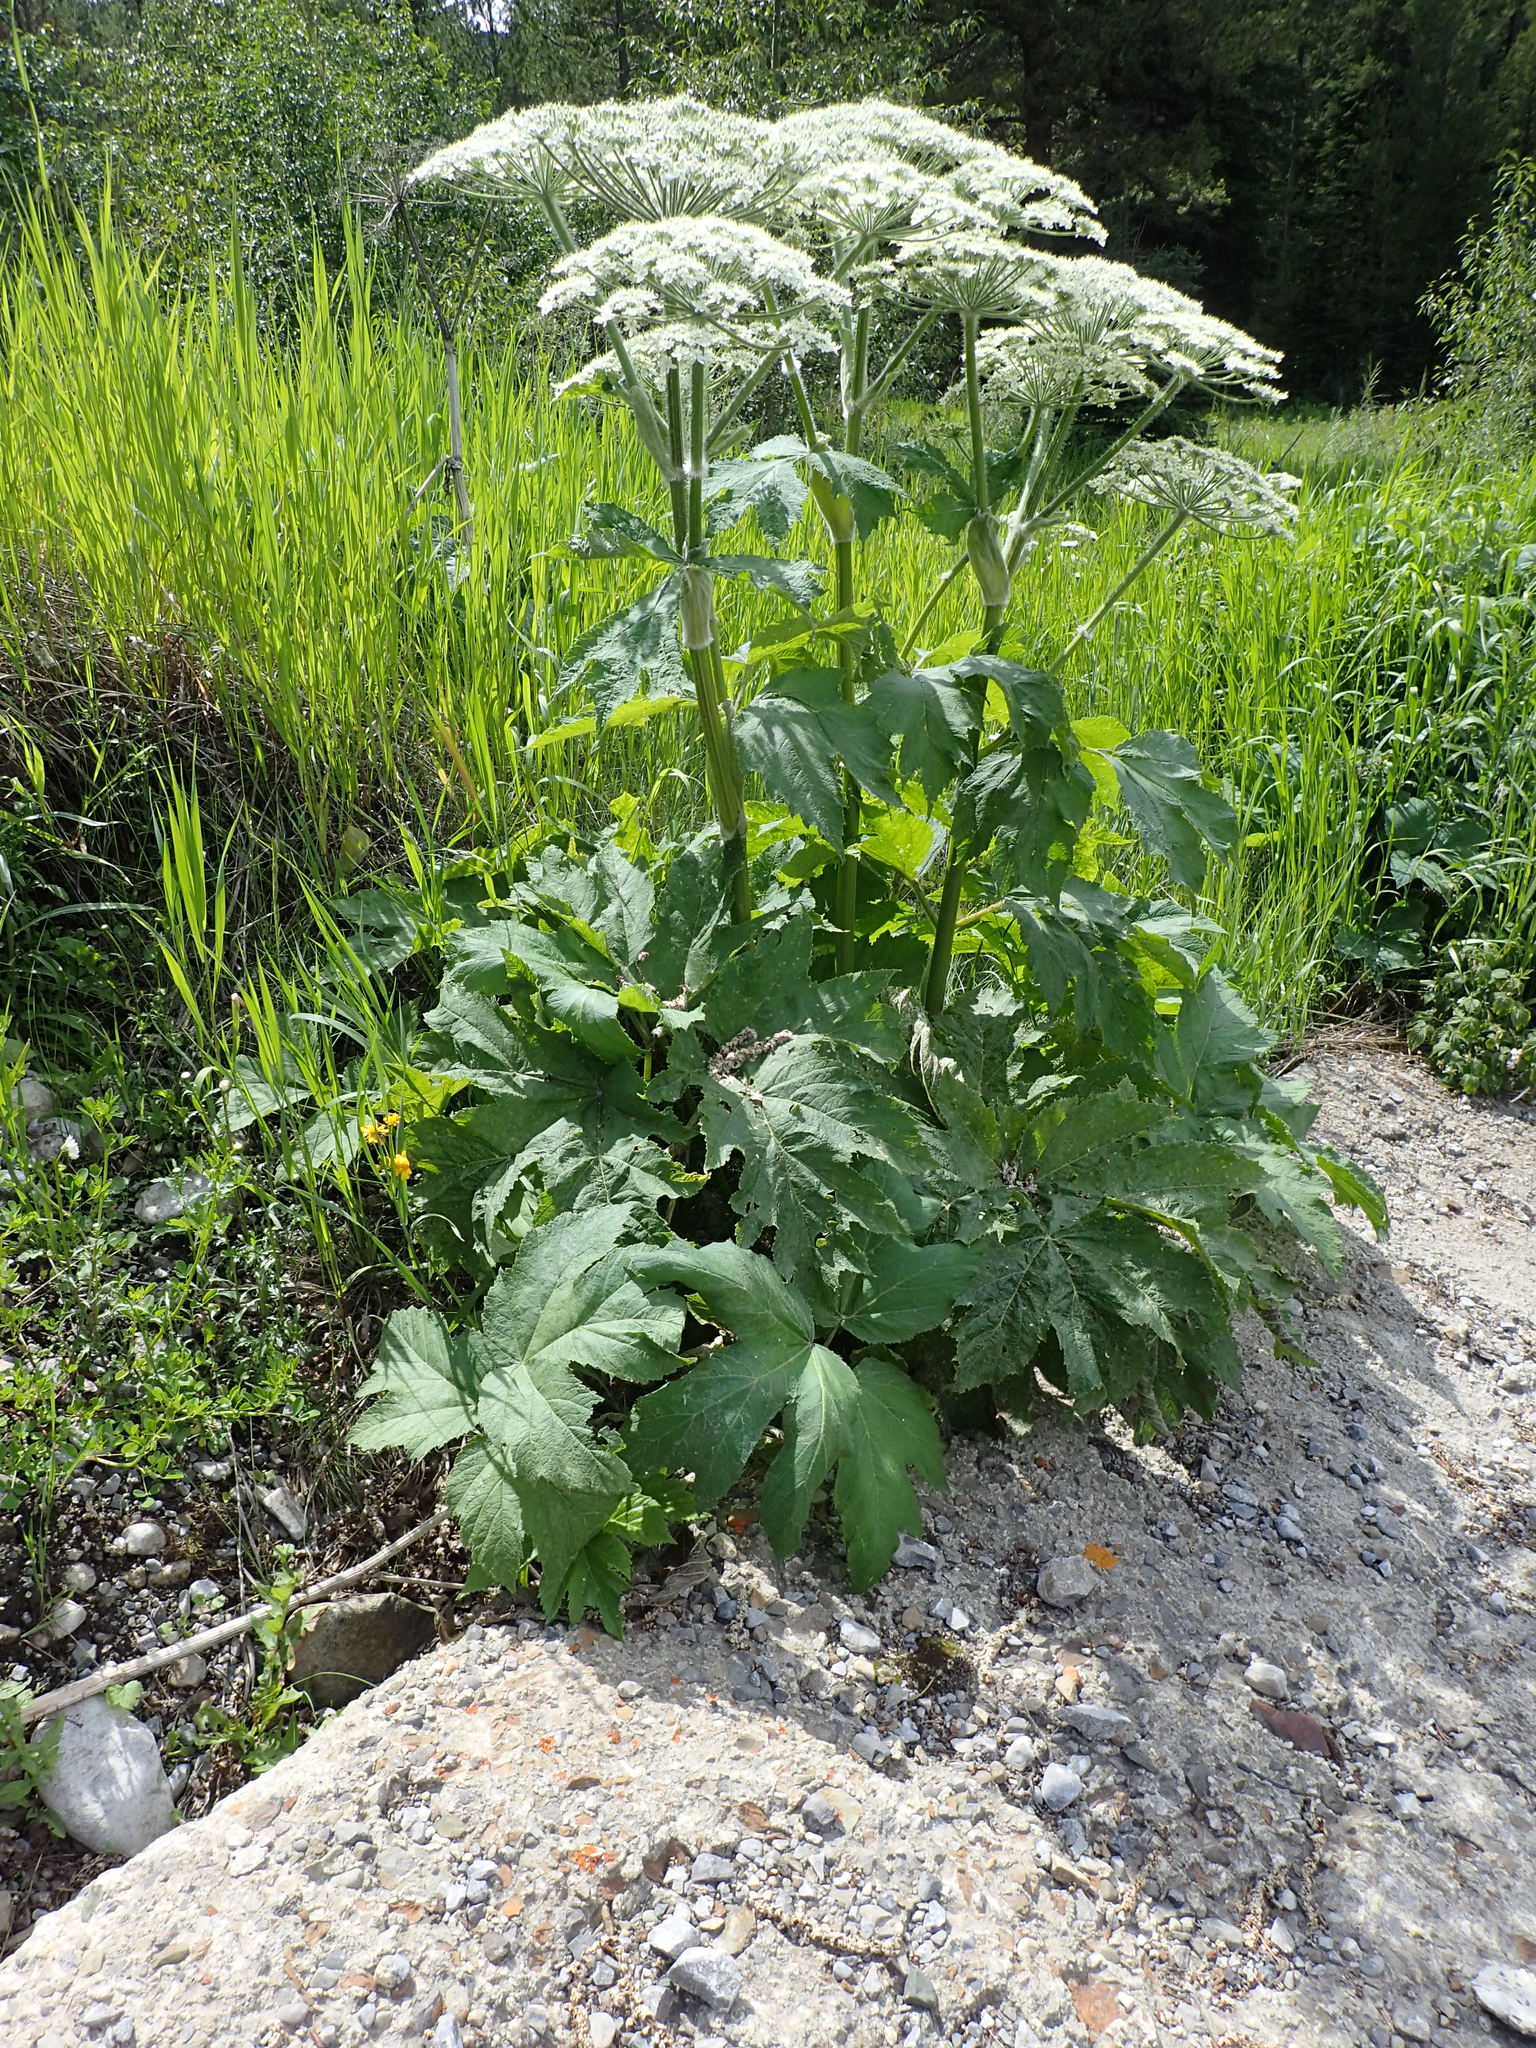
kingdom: Plantae
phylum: Tracheophyta
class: Magnoliopsida
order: Apiales
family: Apiaceae
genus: Heracleum
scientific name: Heracleum maximum
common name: American cow parsnip
